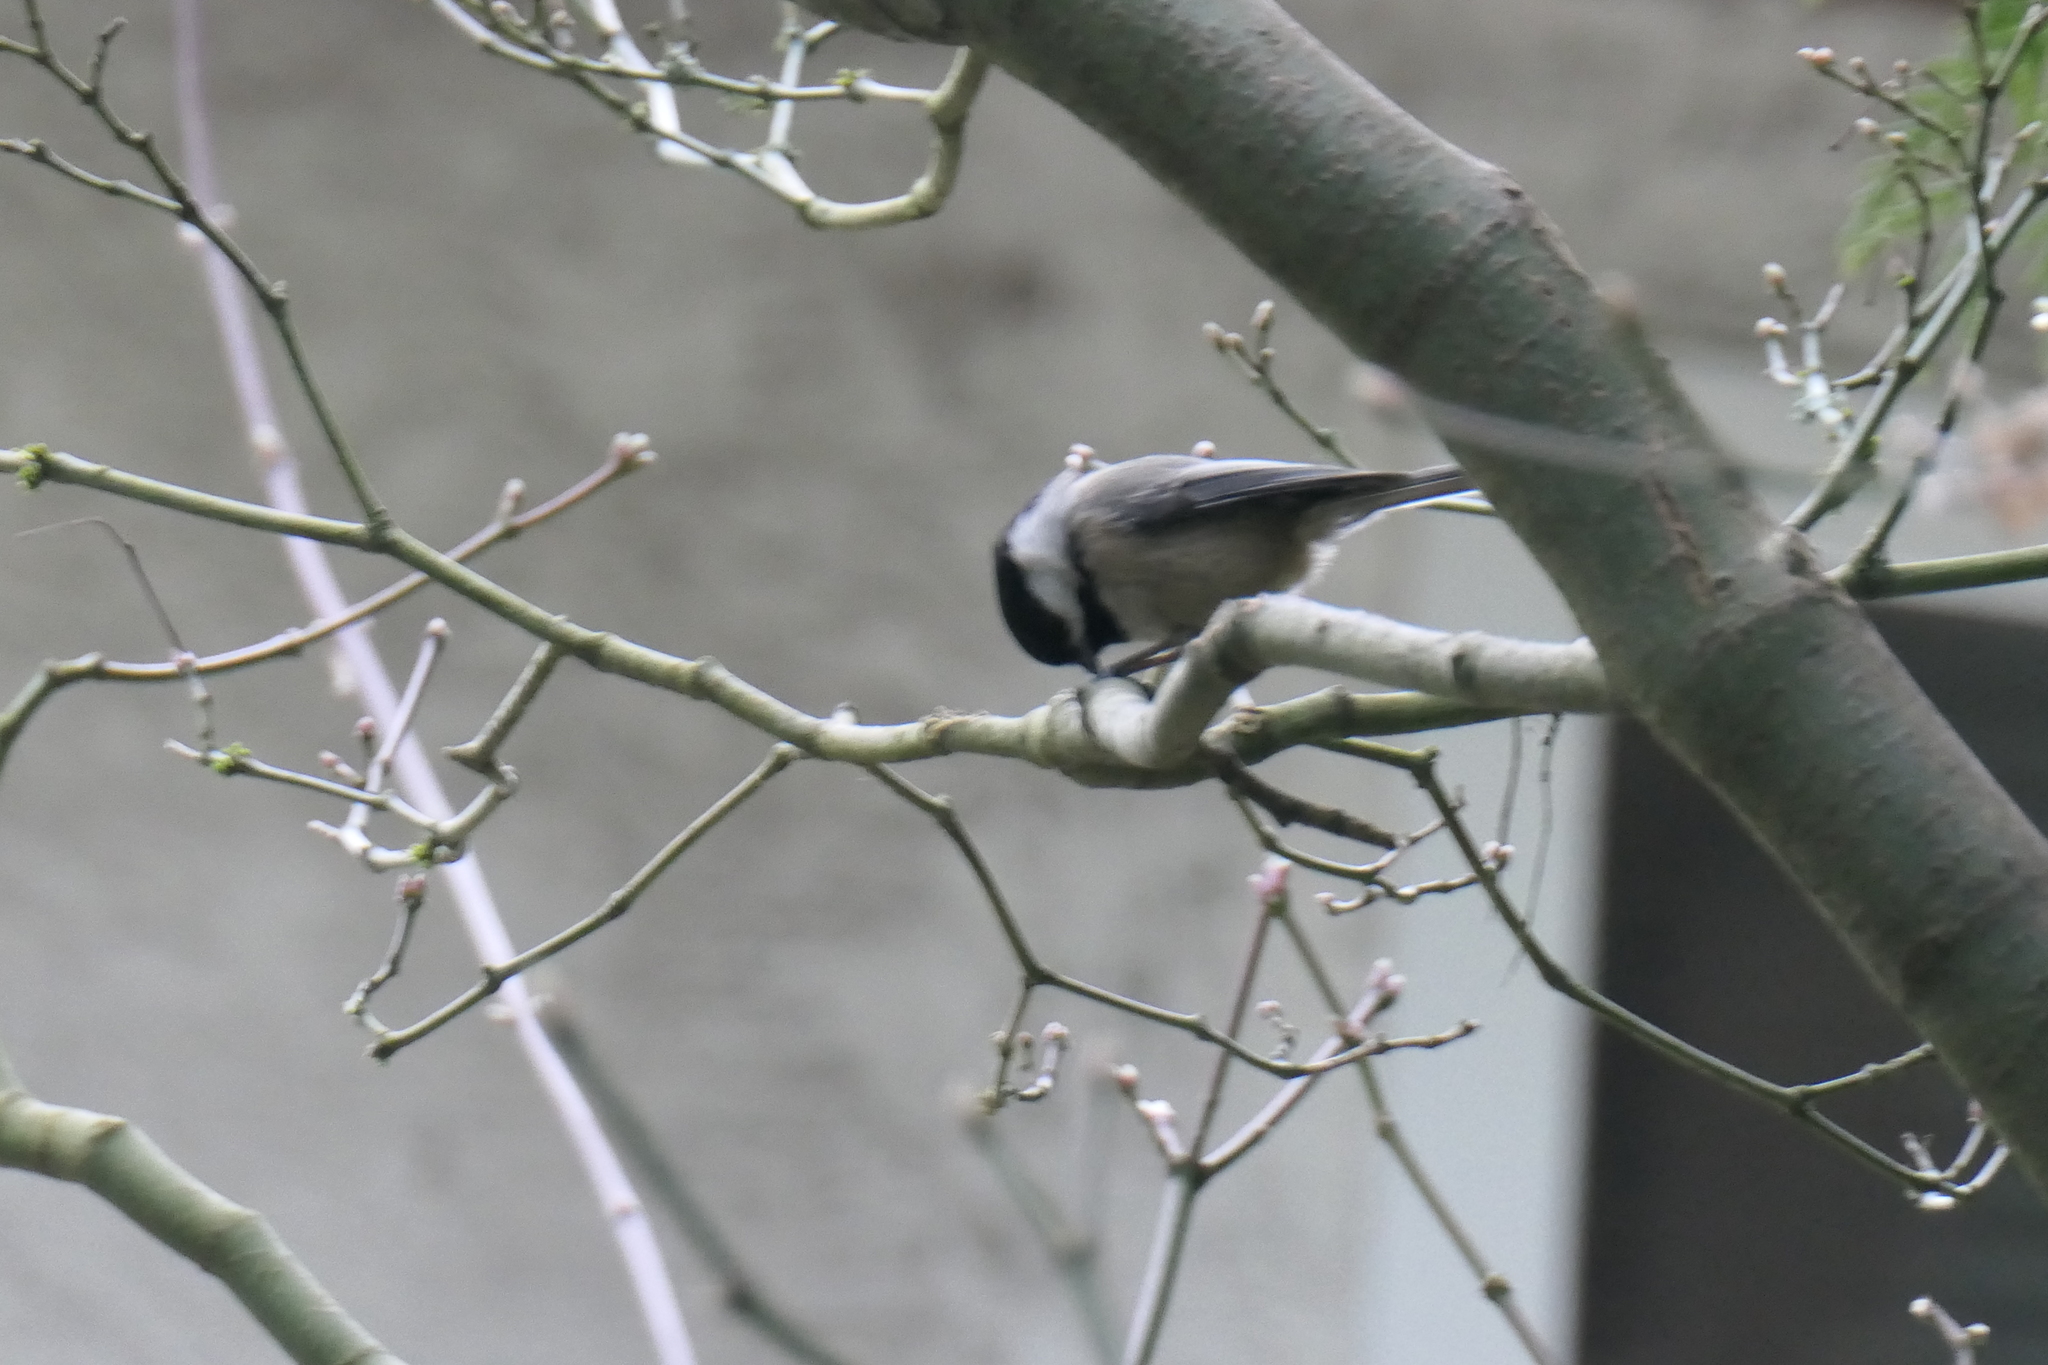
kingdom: Animalia
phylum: Chordata
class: Aves
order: Passeriformes
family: Paridae
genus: Poecile
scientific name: Poecile atricapillus
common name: Black-capped chickadee
